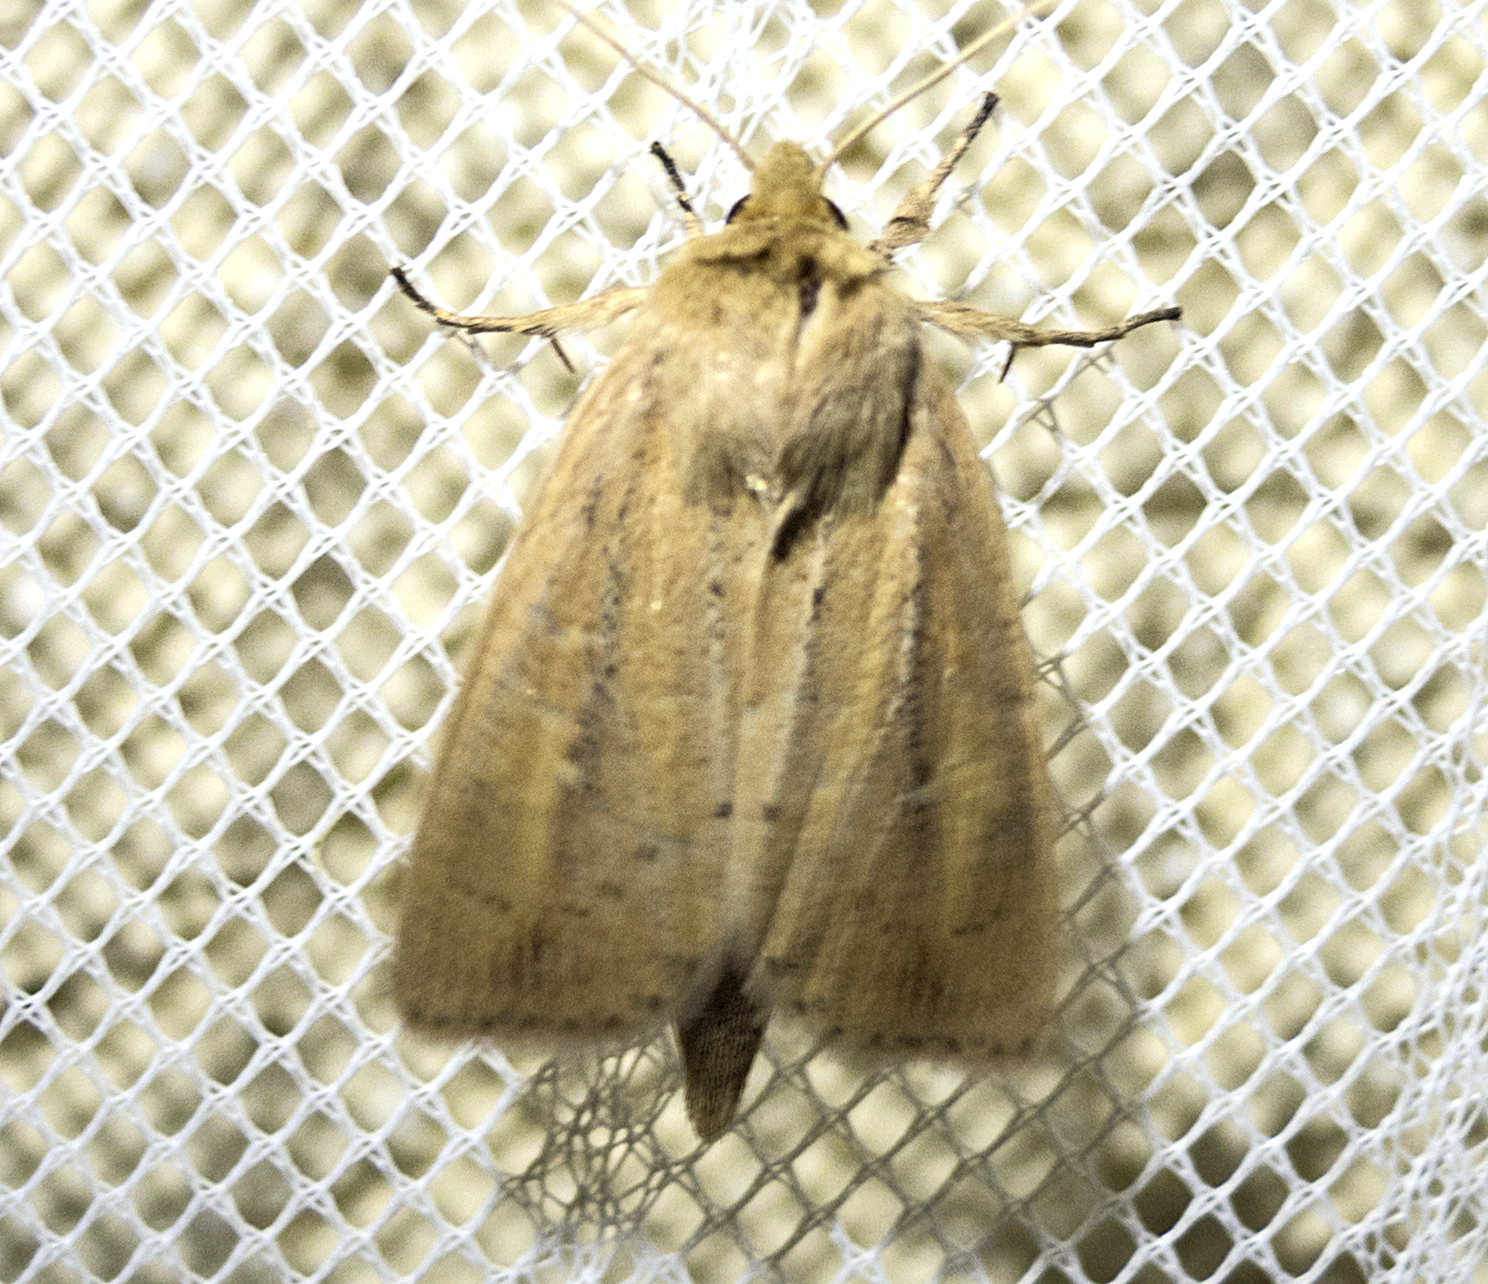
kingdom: Animalia
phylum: Arthropoda
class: Insecta
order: Lepidoptera
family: Noctuidae
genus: Globia
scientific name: Globia sparganii
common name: Webb's wainscot
